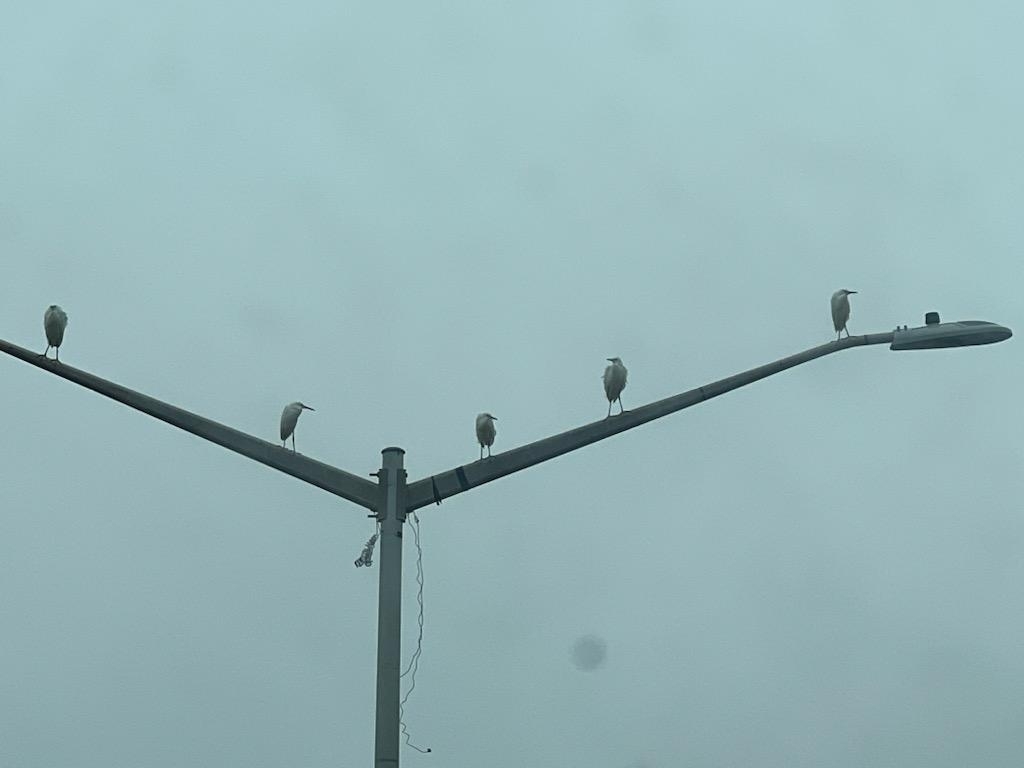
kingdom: Animalia
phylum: Chordata
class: Aves
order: Pelecaniformes
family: Ardeidae
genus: Bubulcus
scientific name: Bubulcus ibis
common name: Cattle egret
